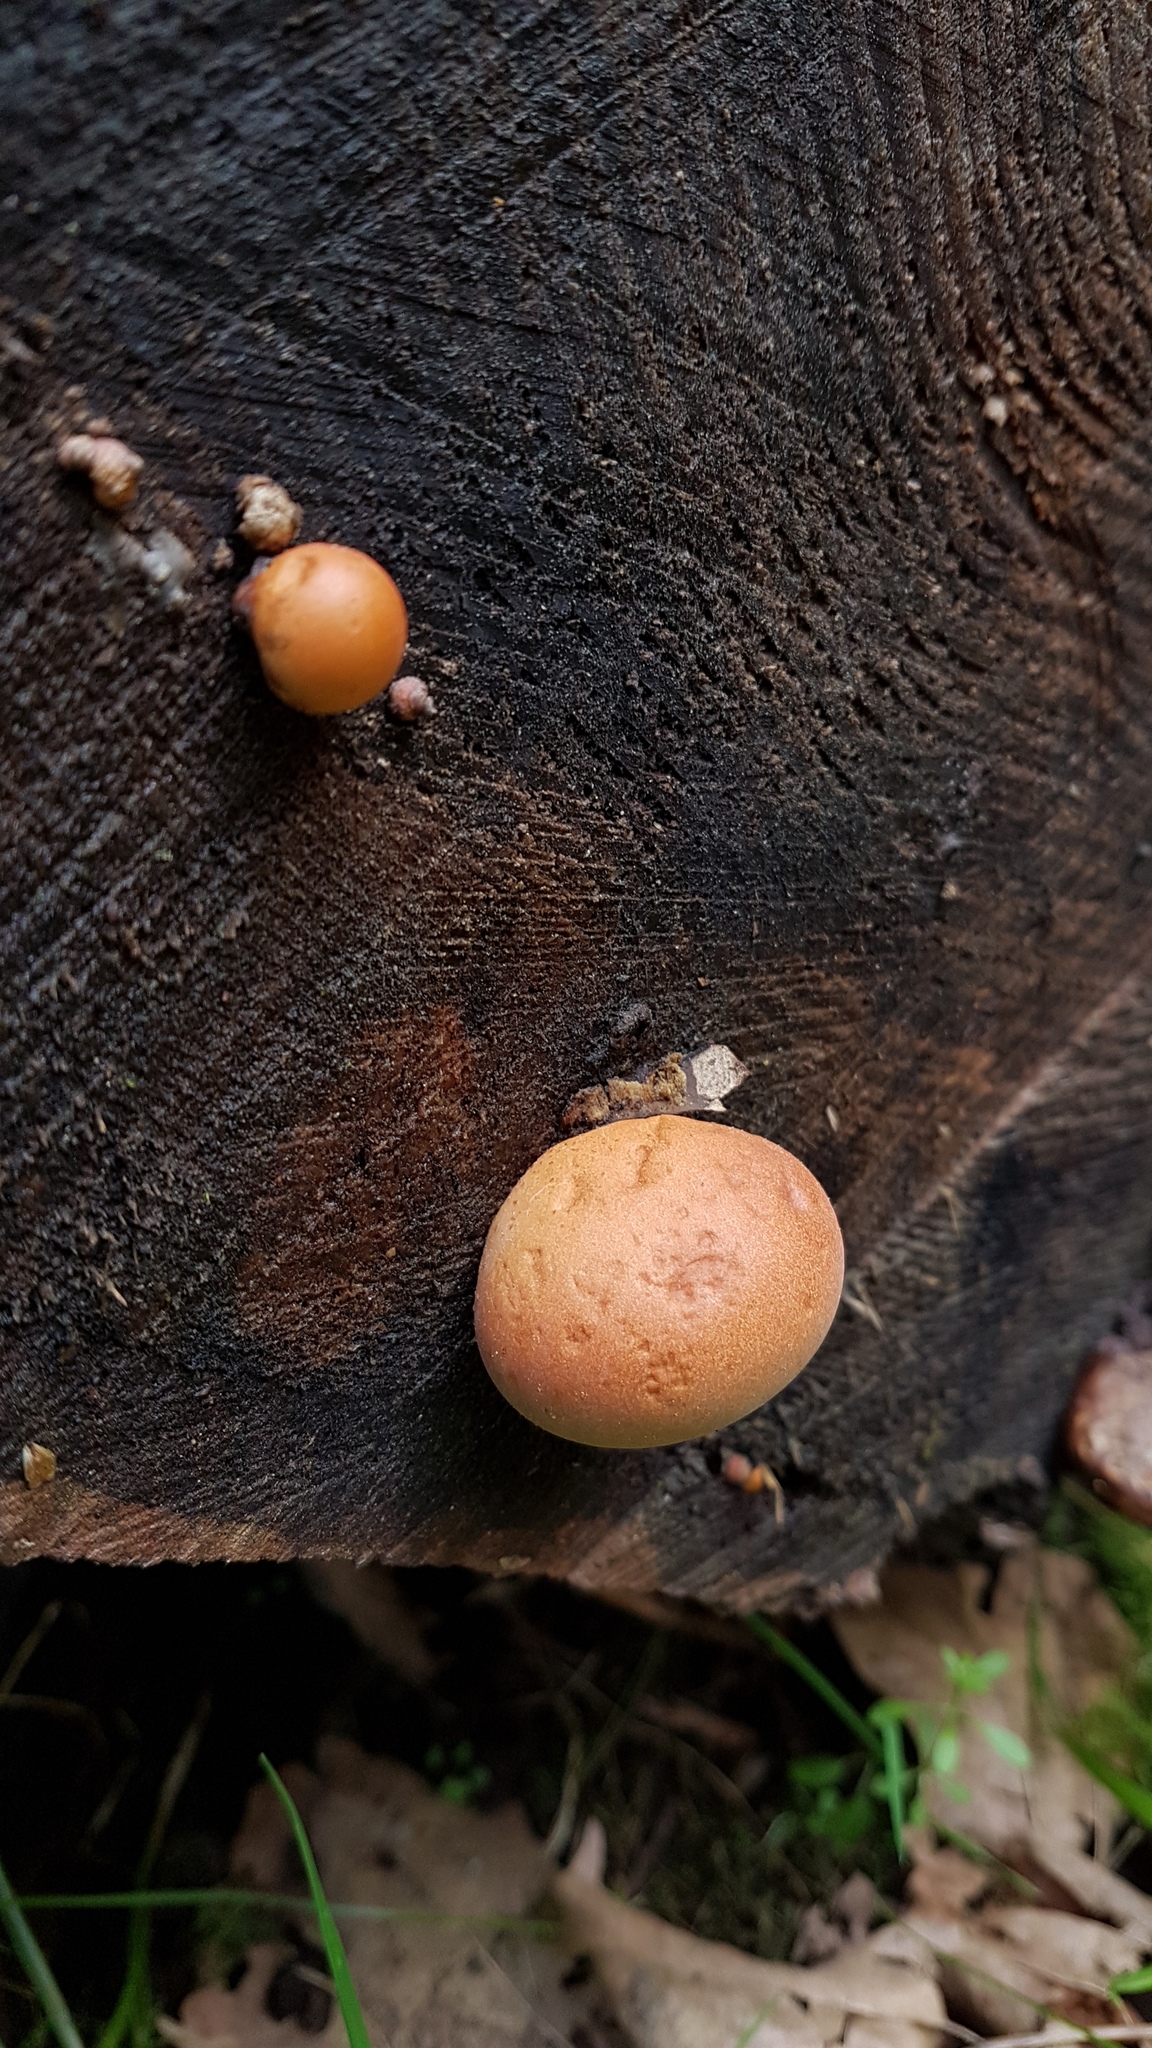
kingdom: Fungi
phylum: Basidiomycota
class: Agaricomycetes
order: Polyporales
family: Polyporaceae
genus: Cryptoporus
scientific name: Cryptoporus volvatus
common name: Veiled polypore
